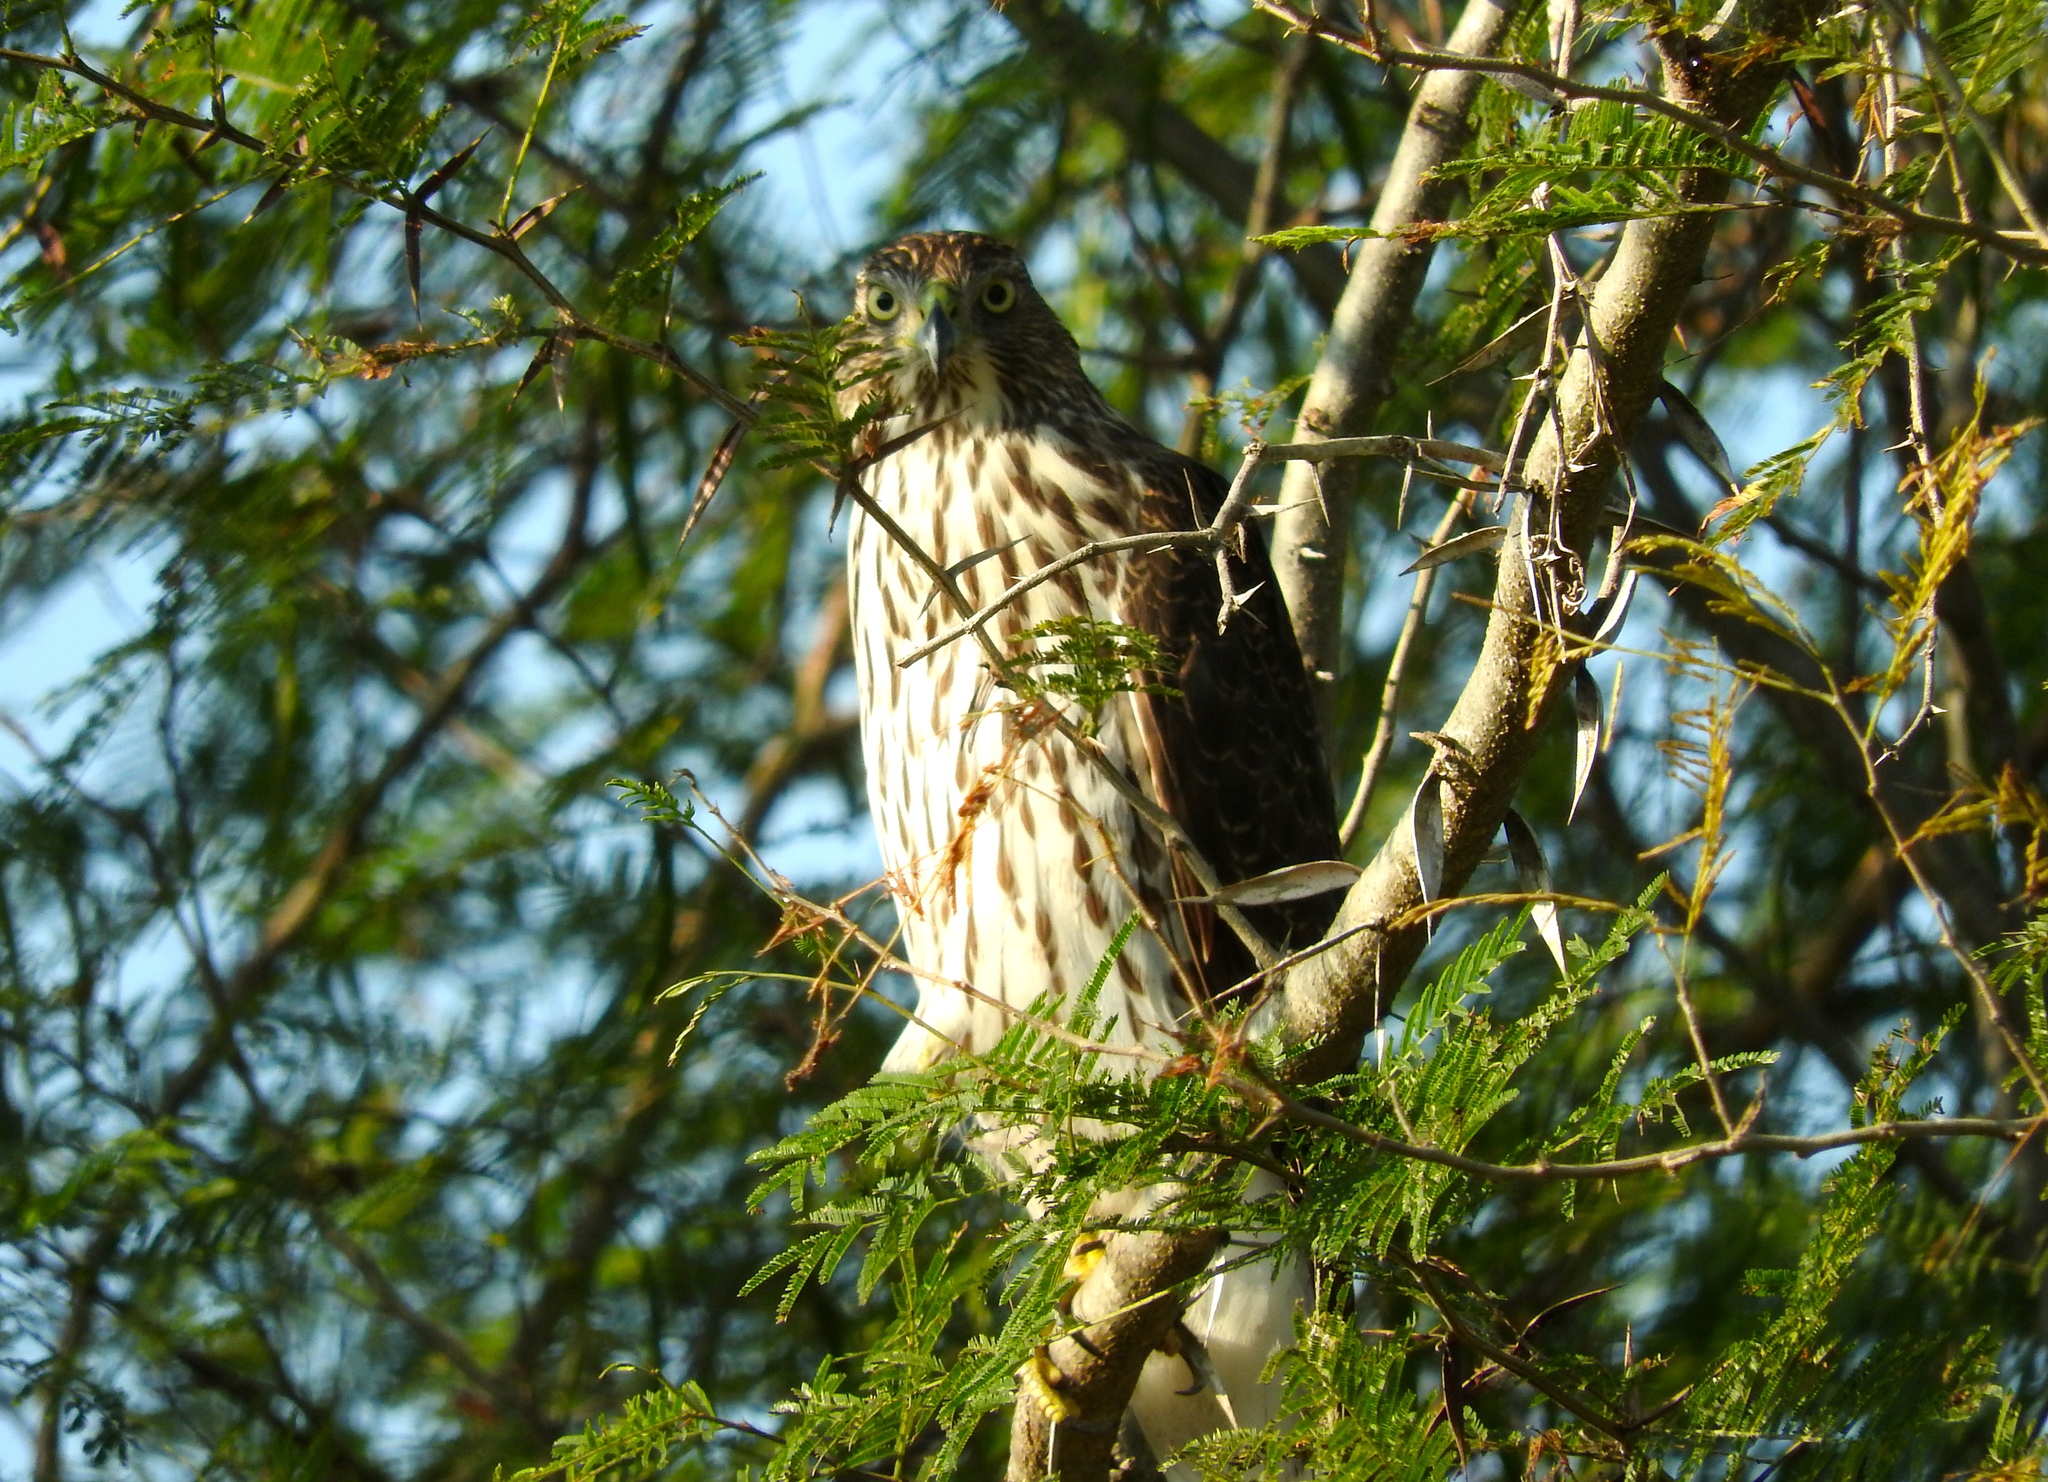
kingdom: Animalia
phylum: Chordata
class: Aves
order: Accipitriformes
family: Accipitridae
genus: Accipiter
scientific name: Accipiter cooperii
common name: Cooper's hawk
